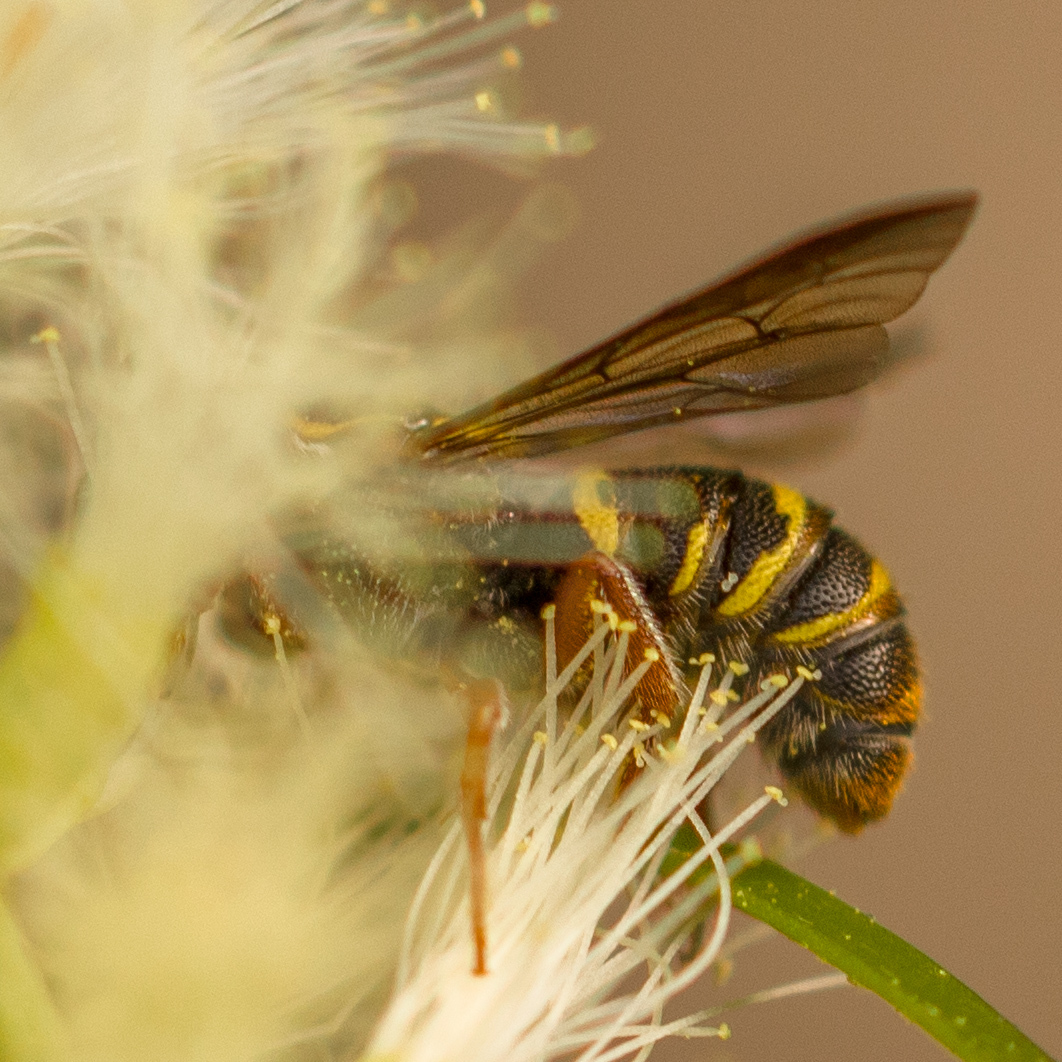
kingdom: Animalia
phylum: Arthropoda
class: Insecta
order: Hymenoptera
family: Megachilidae
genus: Stelis
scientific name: Stelis costalis
